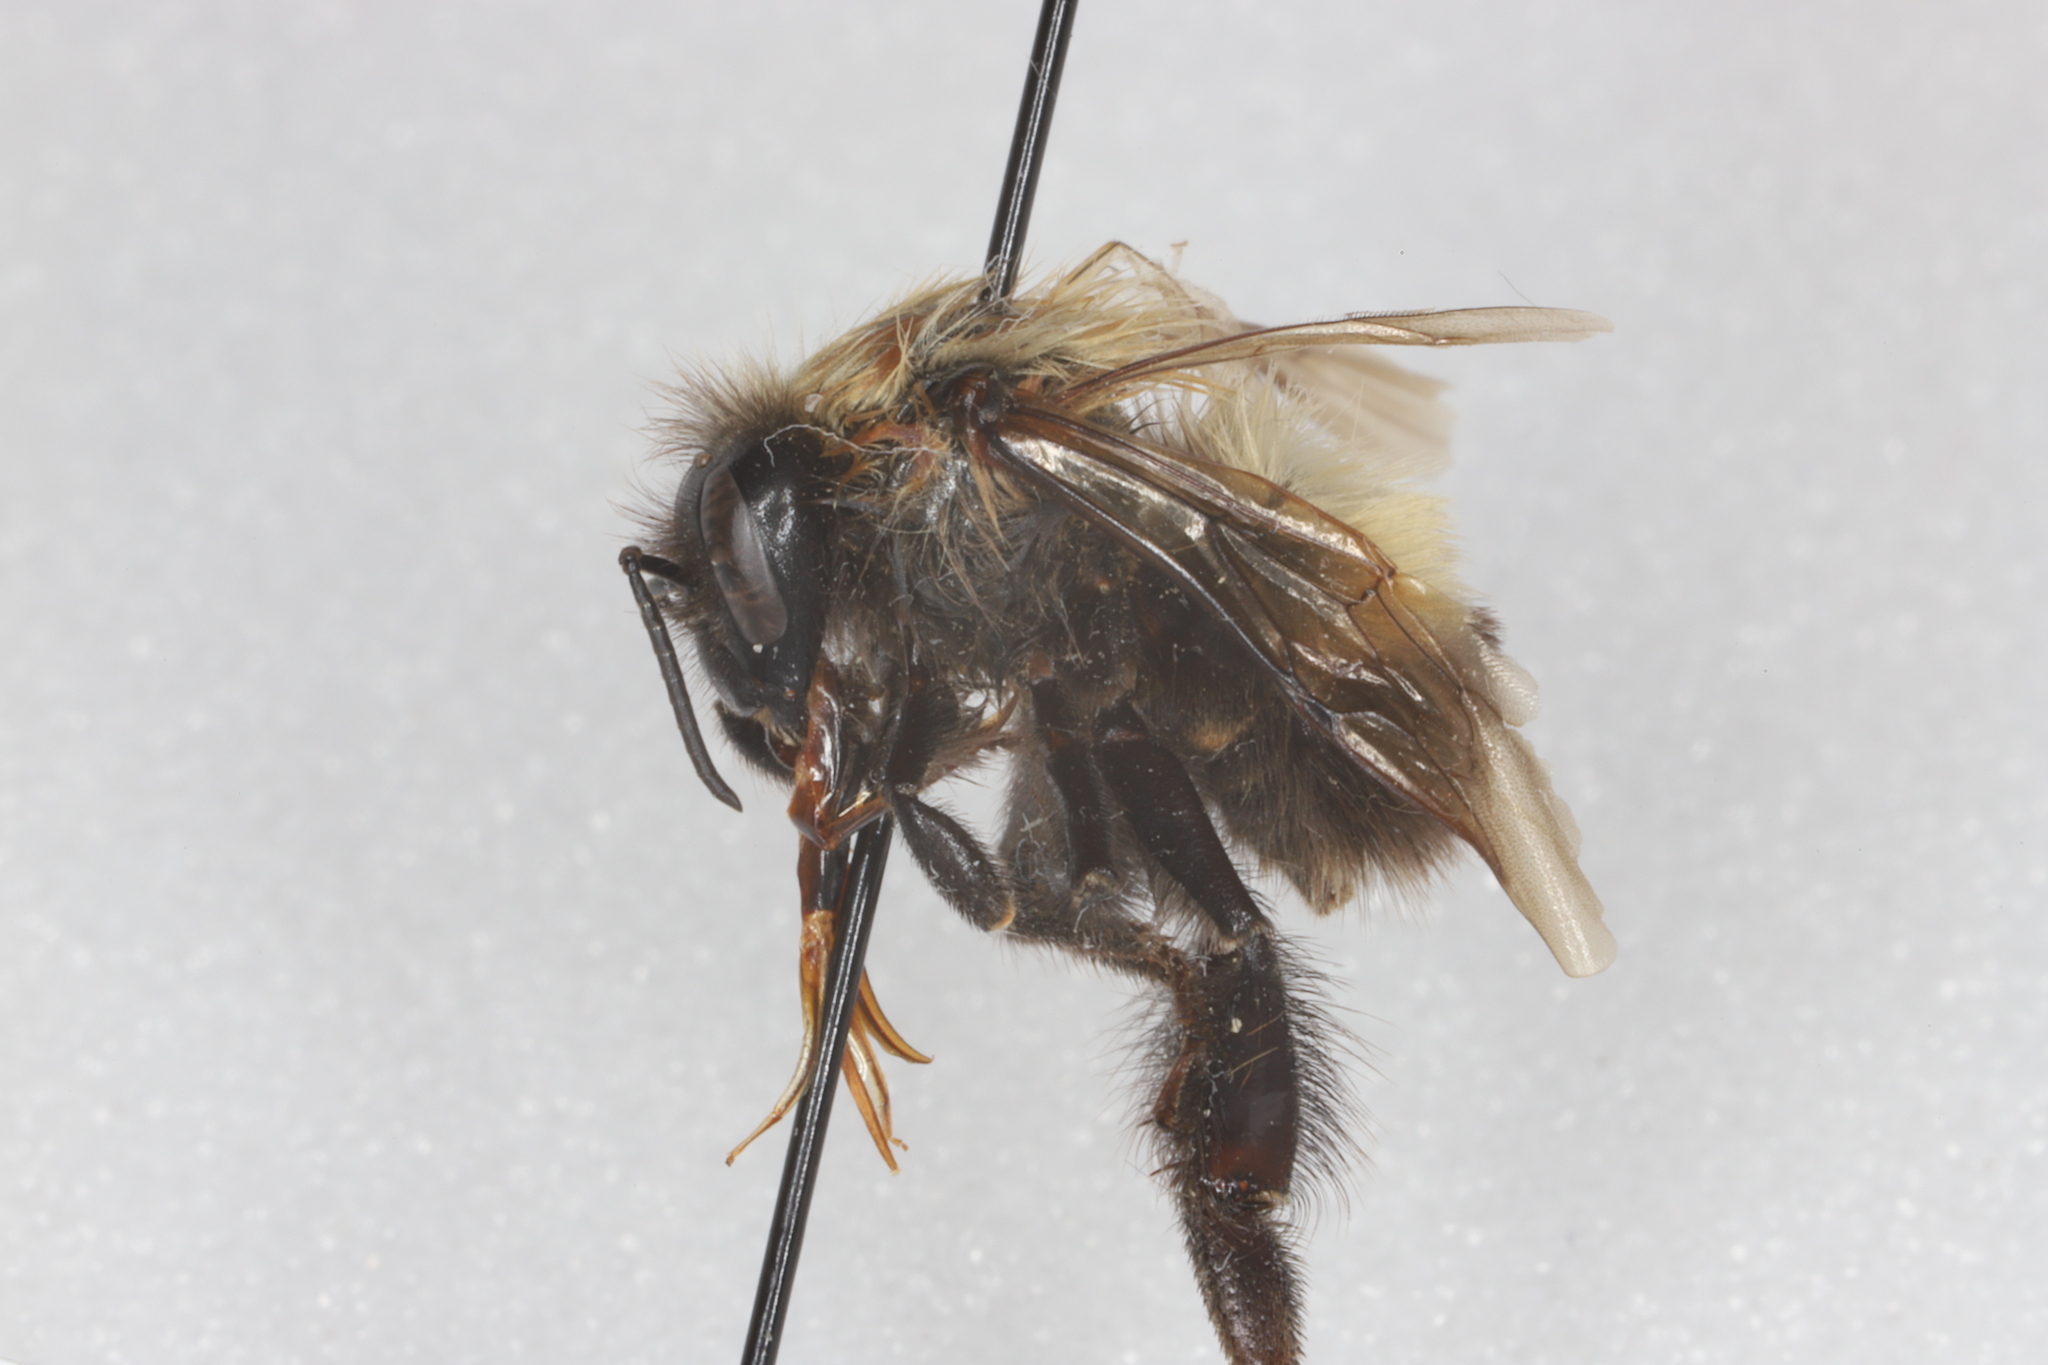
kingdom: Animalia
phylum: Arthropoda
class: Insecta
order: Hymenoptera
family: Apidae
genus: Bombus
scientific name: Bombus perplexus
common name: Confusing bumble bee
